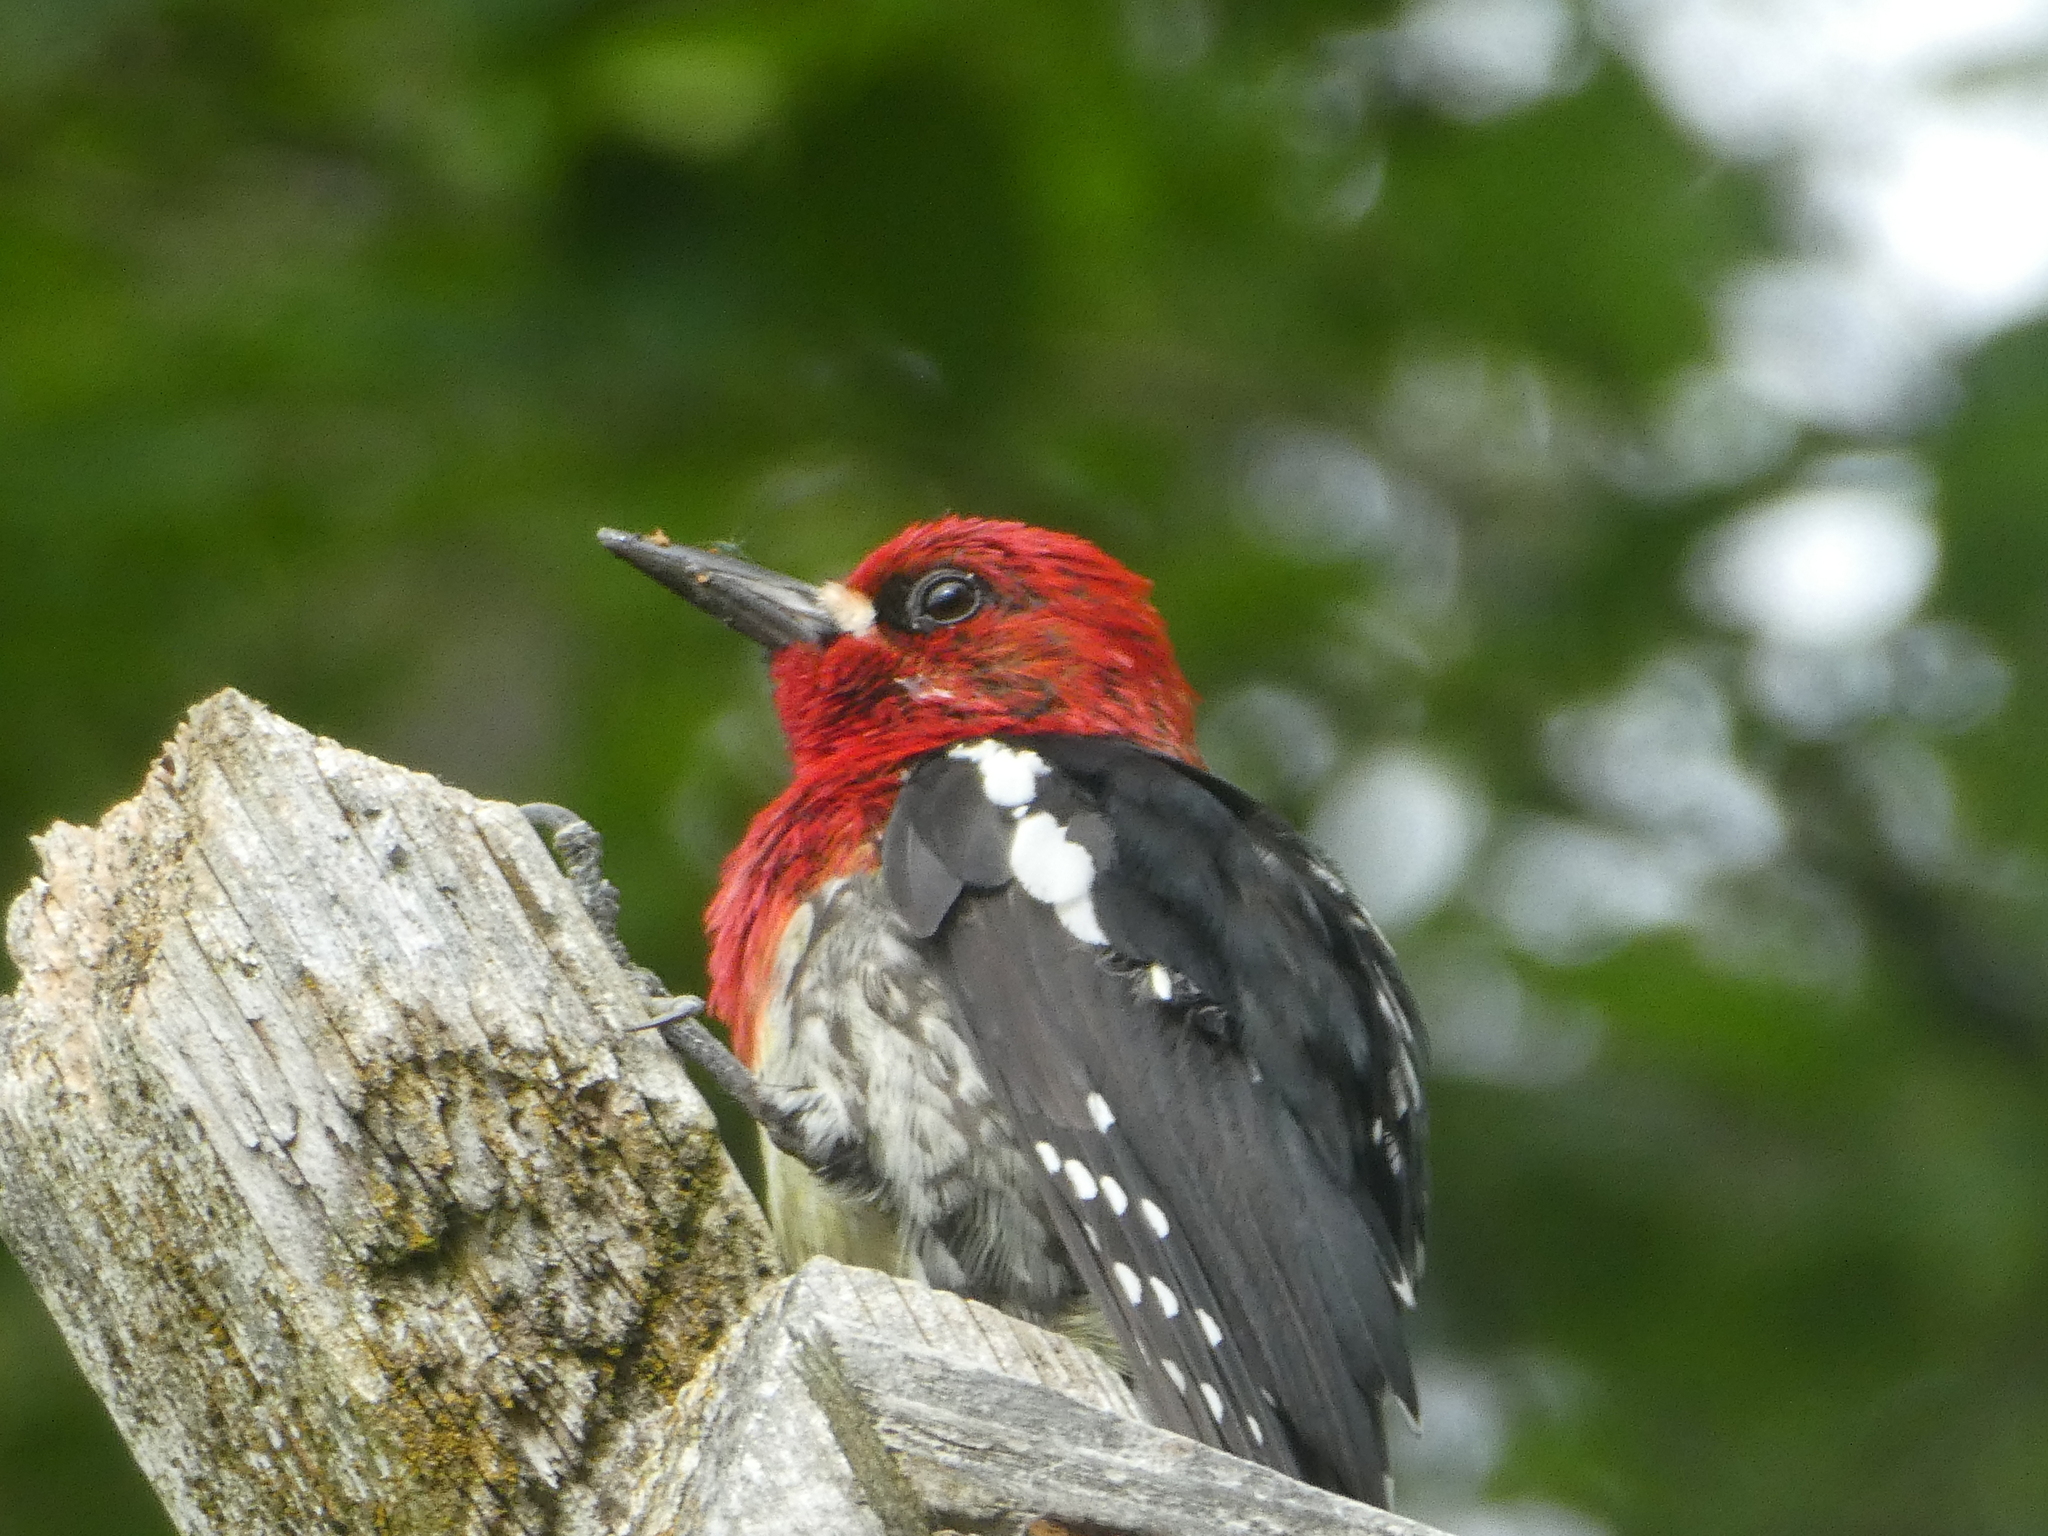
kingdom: Animalia
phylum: Chordata
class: Aves
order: Piciformes
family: Picidae
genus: Sphyrapicus
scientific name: Sphyrapicus ruber
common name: Red-breasted sapsucker
